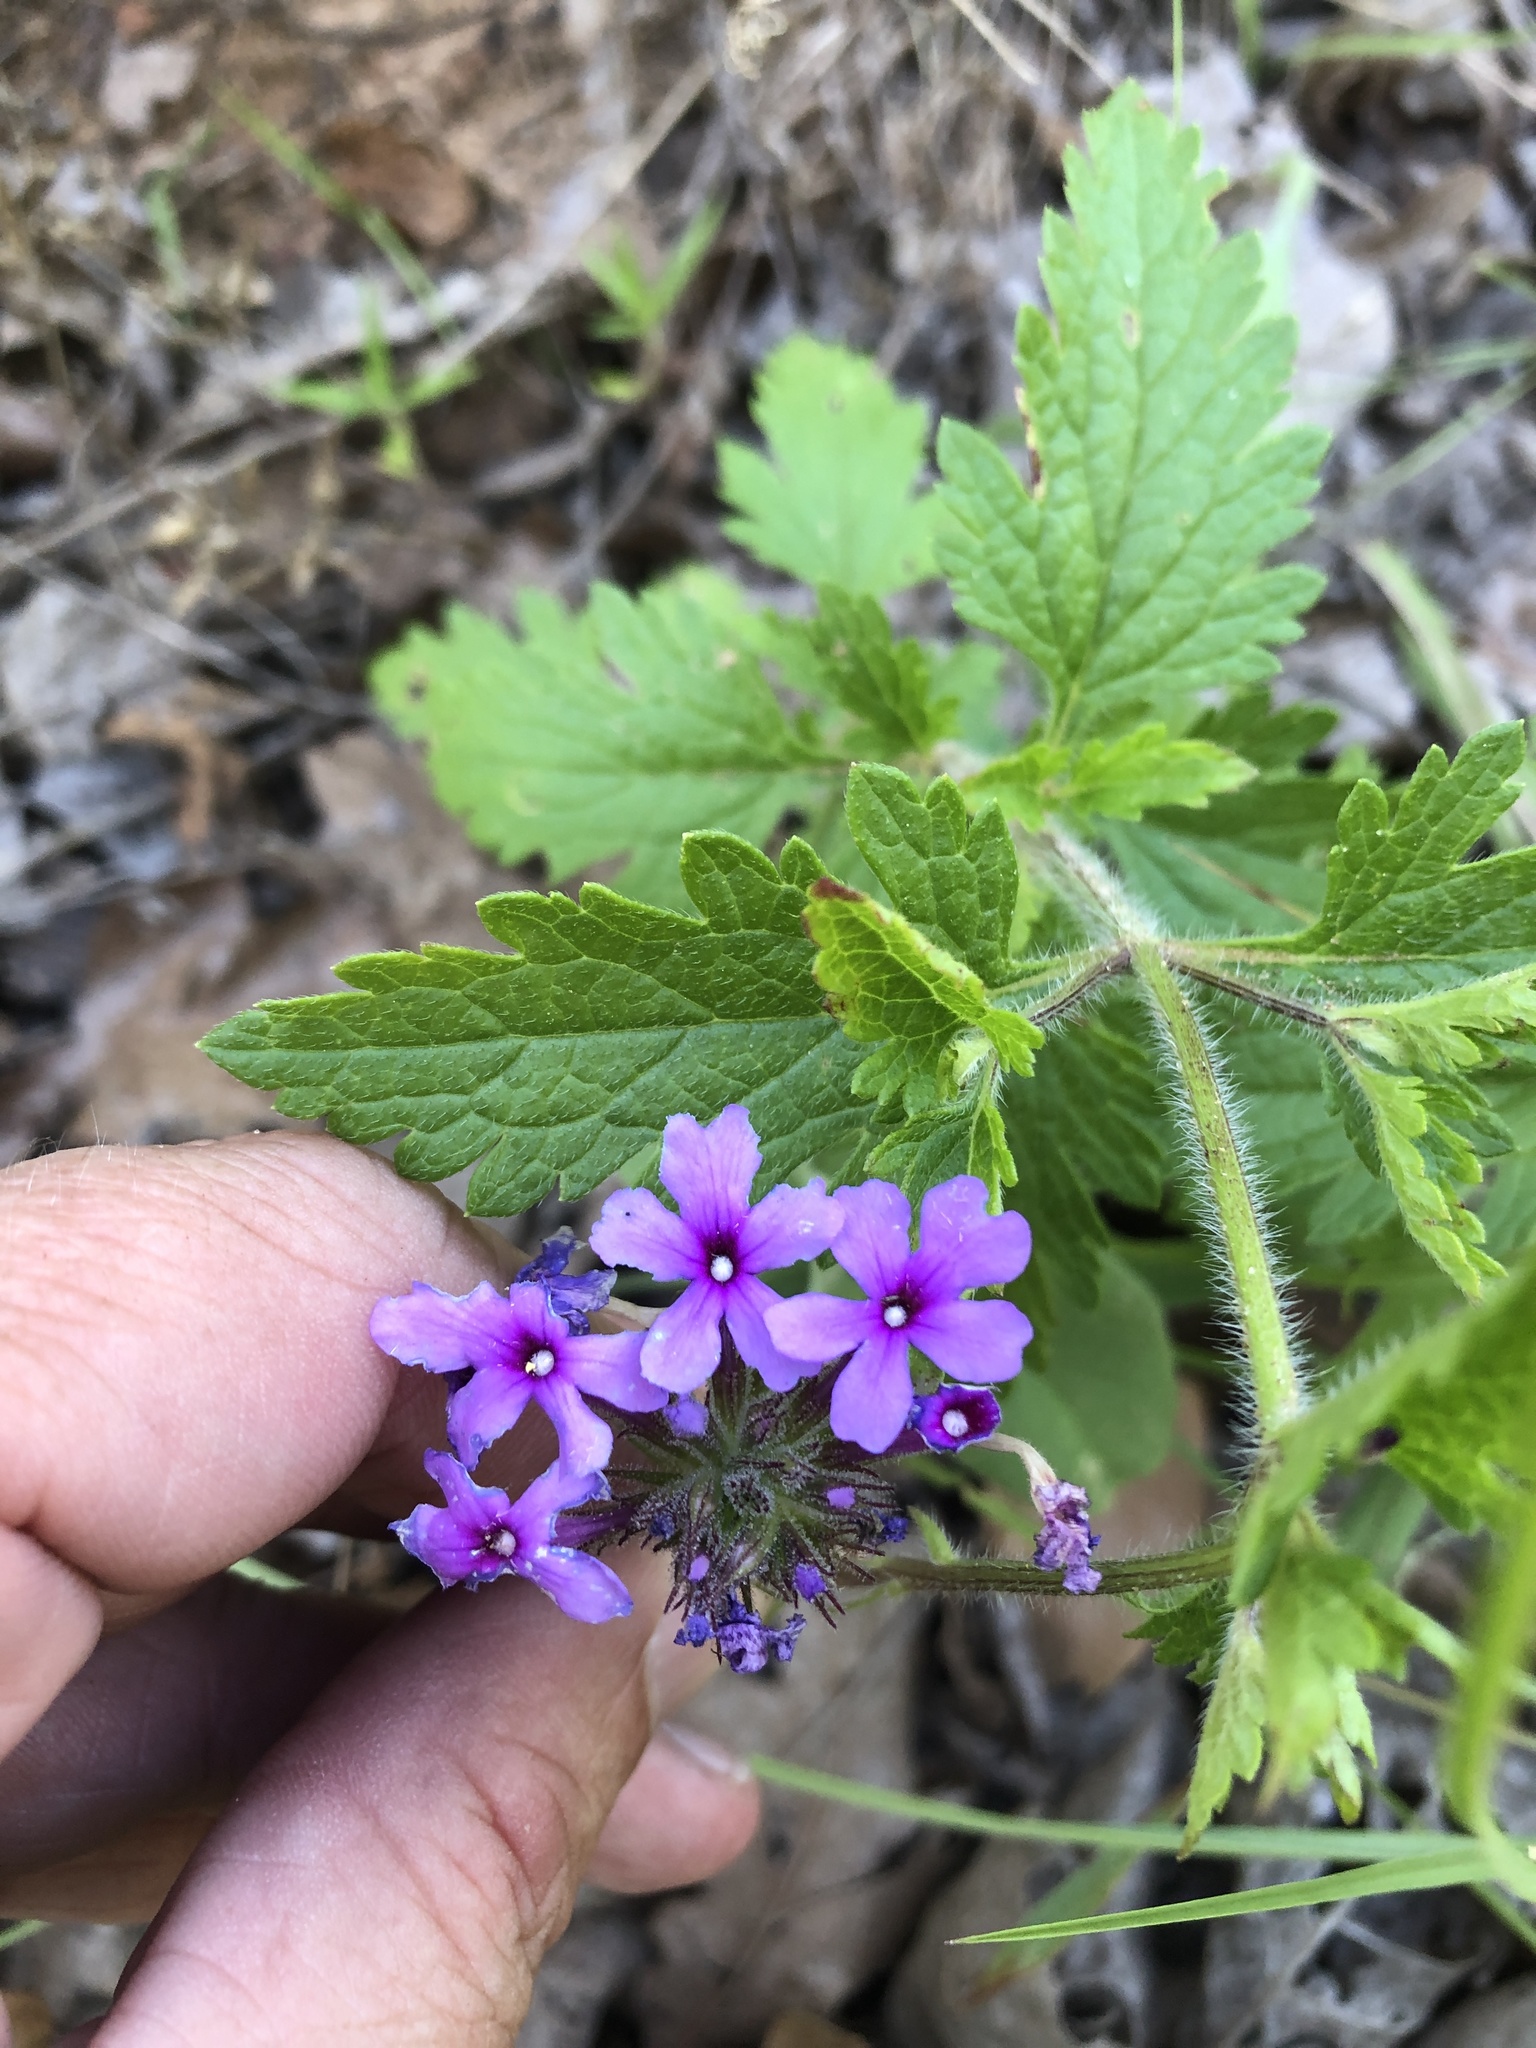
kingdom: Plantae
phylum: Tracheophyta
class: Magnoliopsida
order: Lamiales
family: Verbenaceae
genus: Verbena
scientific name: Verbena canadensis
